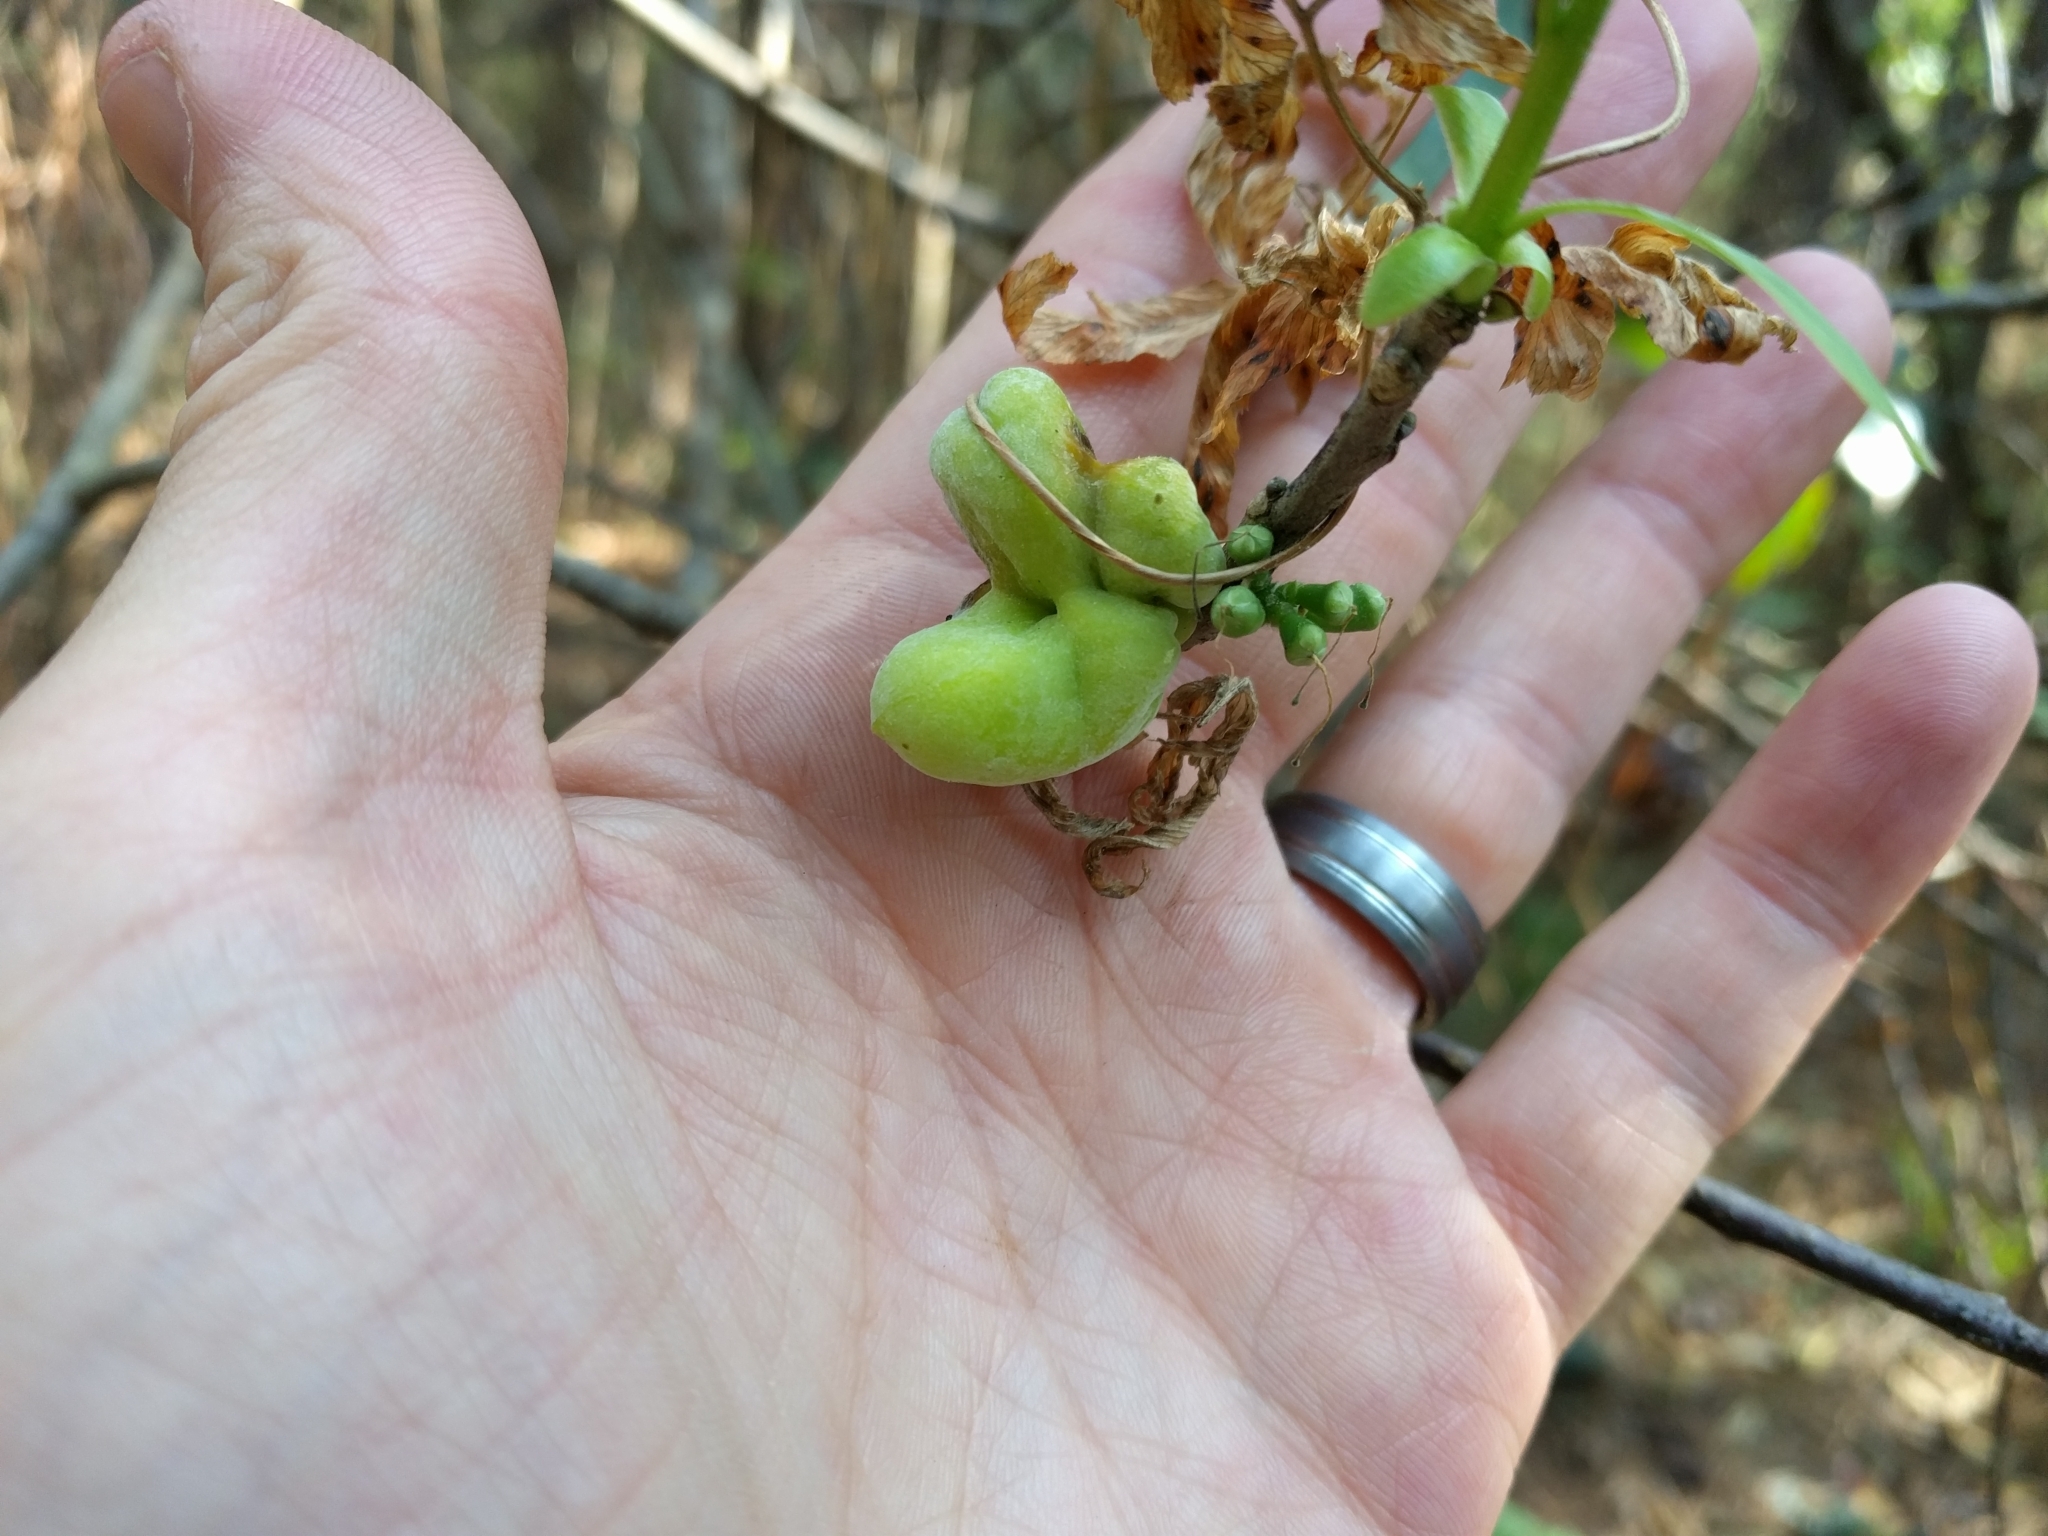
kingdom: Plantae
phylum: Tracheophyta
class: Magnoliopsida
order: Ericales
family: Symplocaceae
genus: Symplocos
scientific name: Symplocos tinctoria
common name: Horse-sugar
